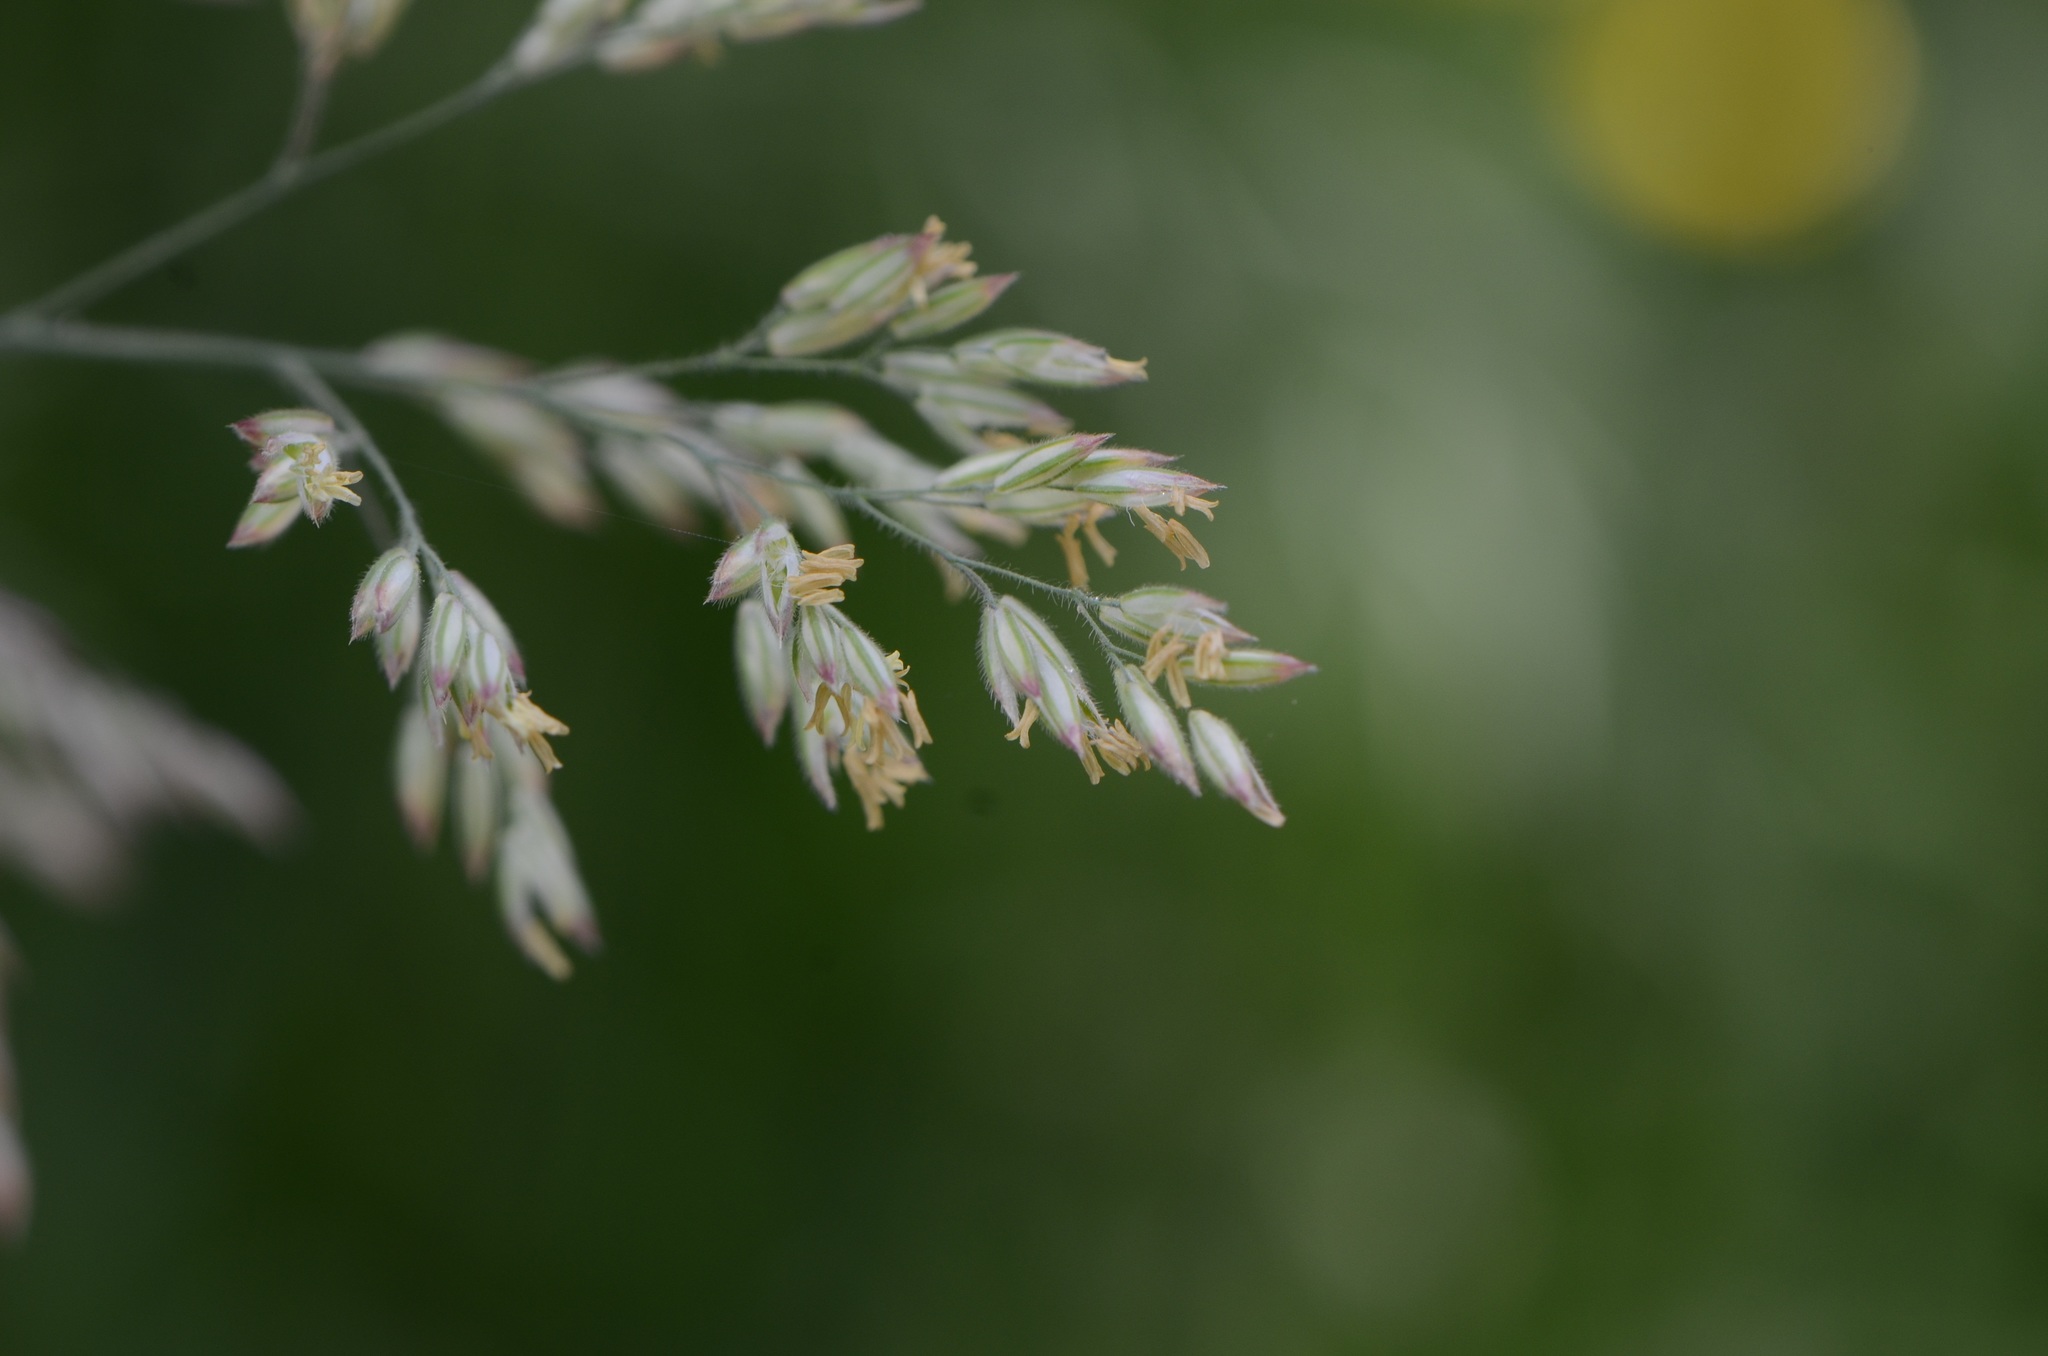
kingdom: Plantae
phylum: Tracheophyta
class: Liliopsida
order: Poales
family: Poaceae
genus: Holcus
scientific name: Holcus lanatus
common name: Yorkshire-fog
